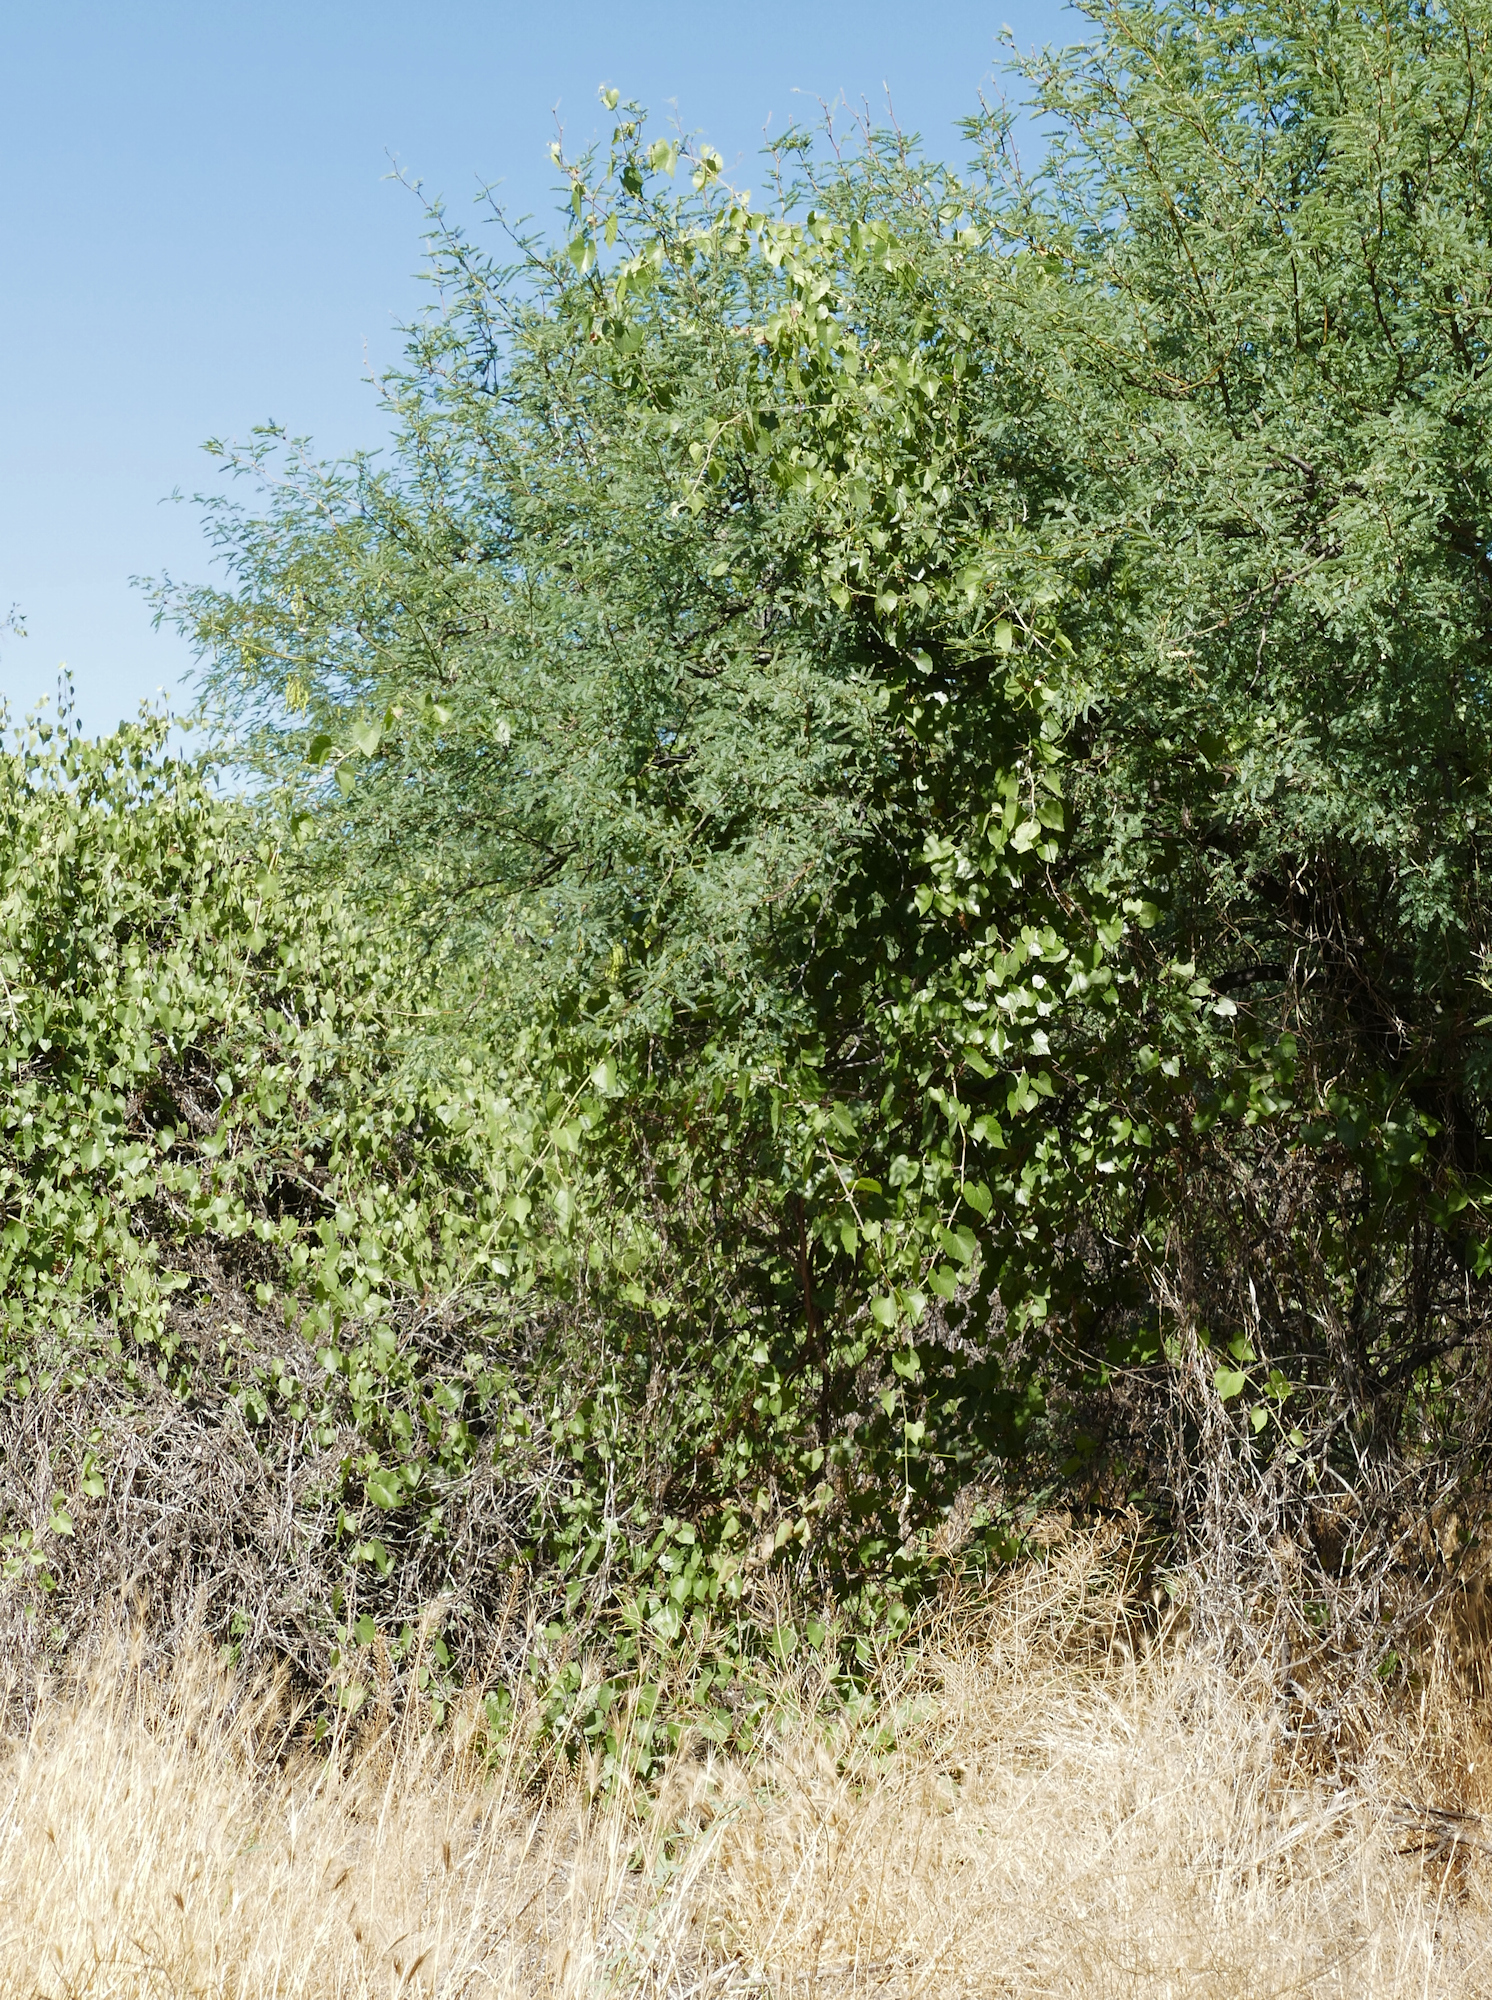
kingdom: Plantae
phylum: Tracheophyta
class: Magnoliopsida
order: Vitales
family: Vitaceae
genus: Vitis
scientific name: Vitis arizonica
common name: Canyon grape
